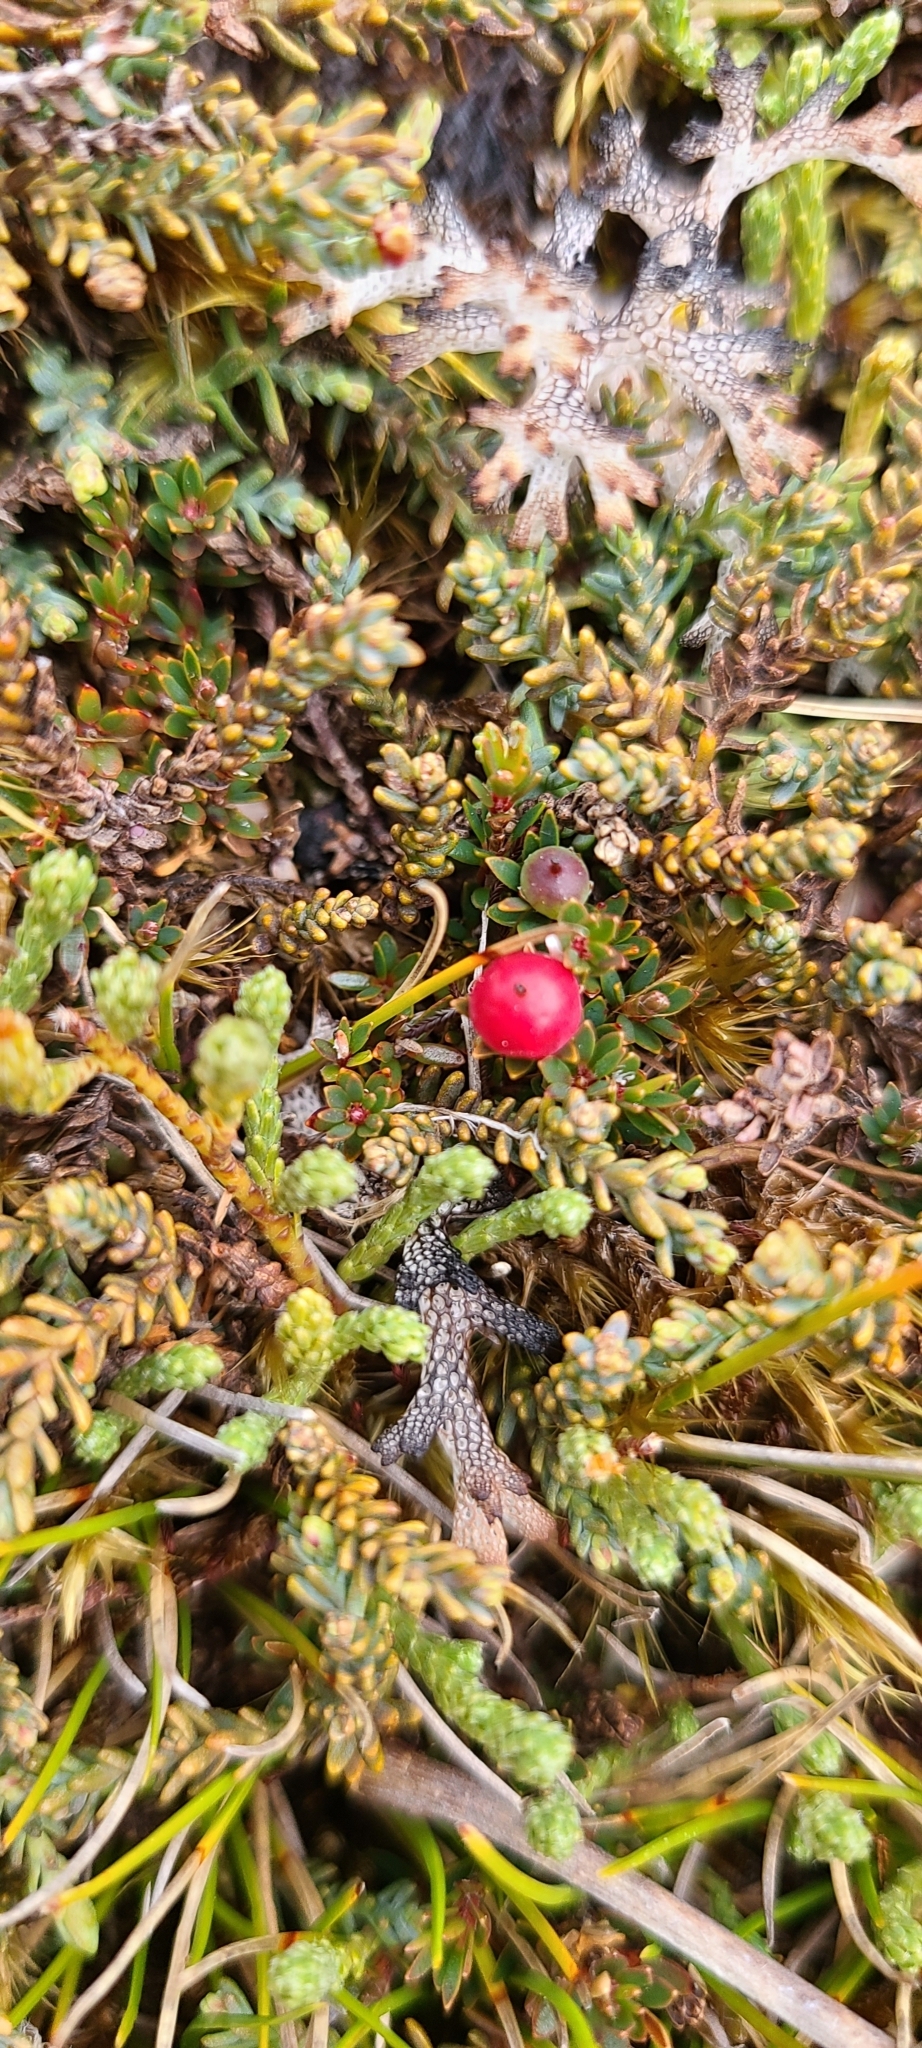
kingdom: Plantae
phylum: Tracheophyta
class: Magnoliopsida
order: Ericales
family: Ericaceae
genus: Pentachondra
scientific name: Pentachondra pumila
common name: Carpet-heath
